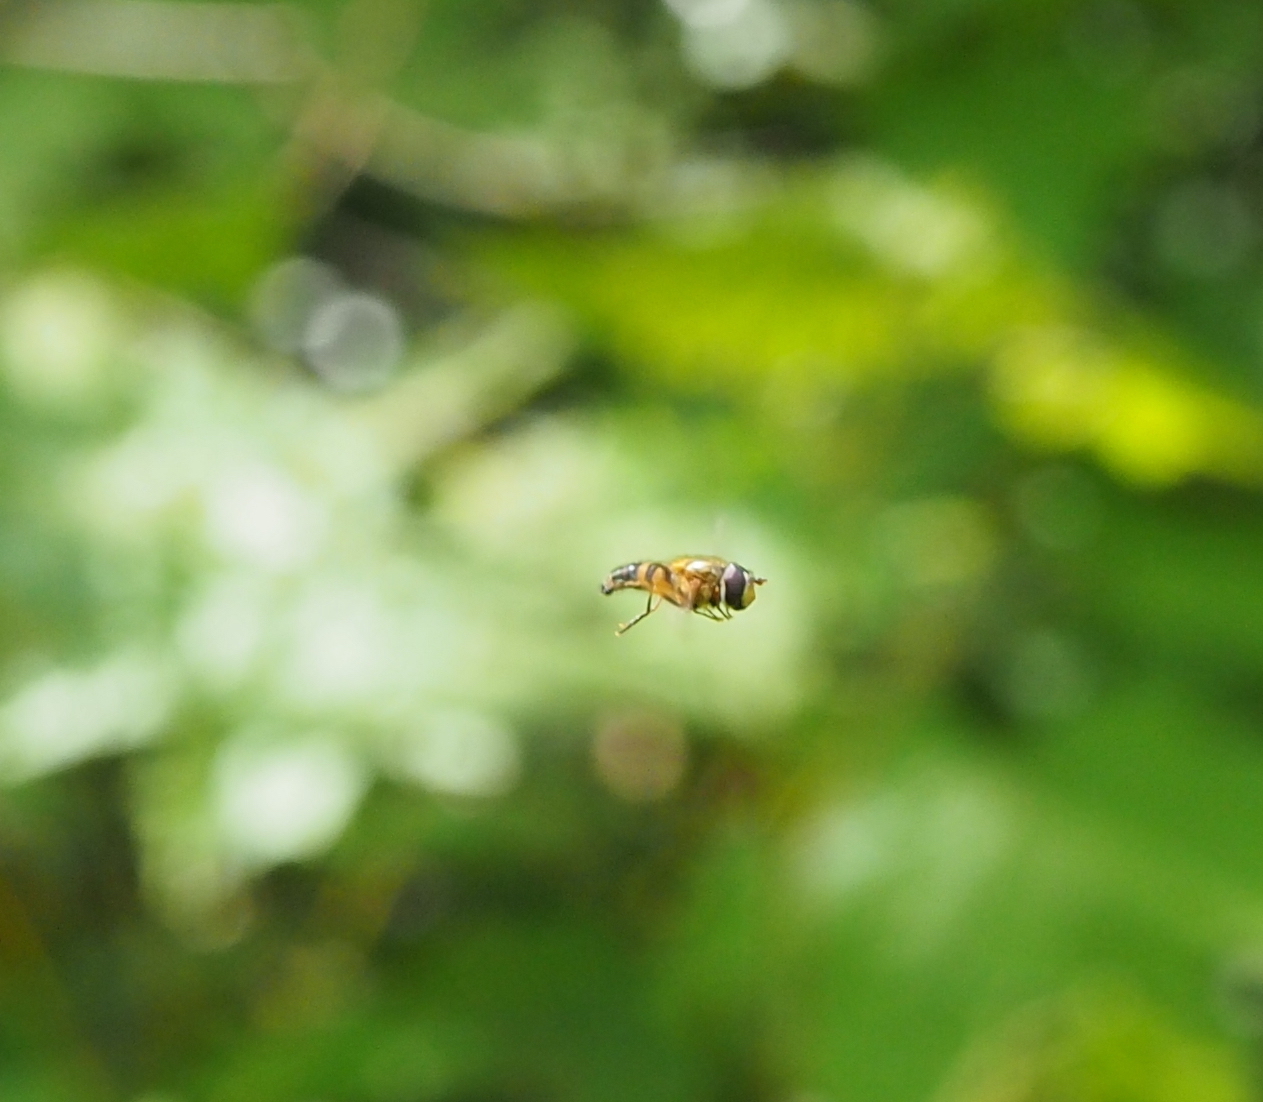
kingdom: Animalia
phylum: Arthropoda
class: Insecta
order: Diptera
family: Syrphidae
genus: Epistrophe
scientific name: Epistrophe eligans
